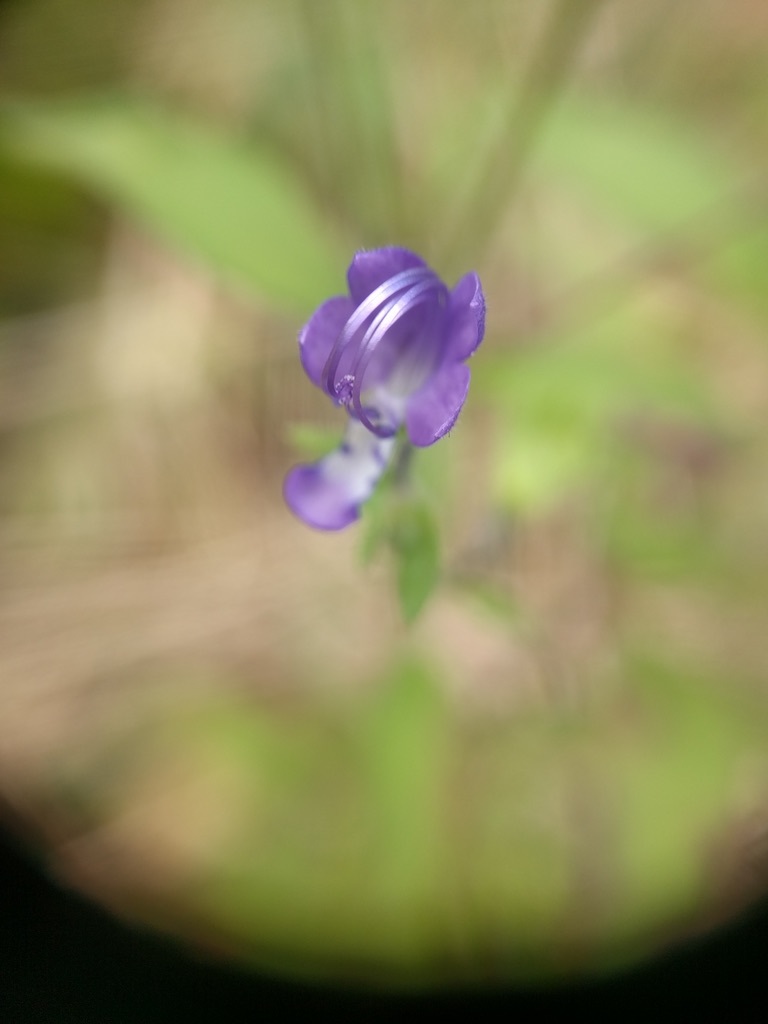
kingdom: Plantae
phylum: Tracheophyta
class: Magnoliopsida
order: Lamiales
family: Lamiaceae
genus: Trichostema
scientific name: Trichostema dichotomum
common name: Bastard pennyroyal
